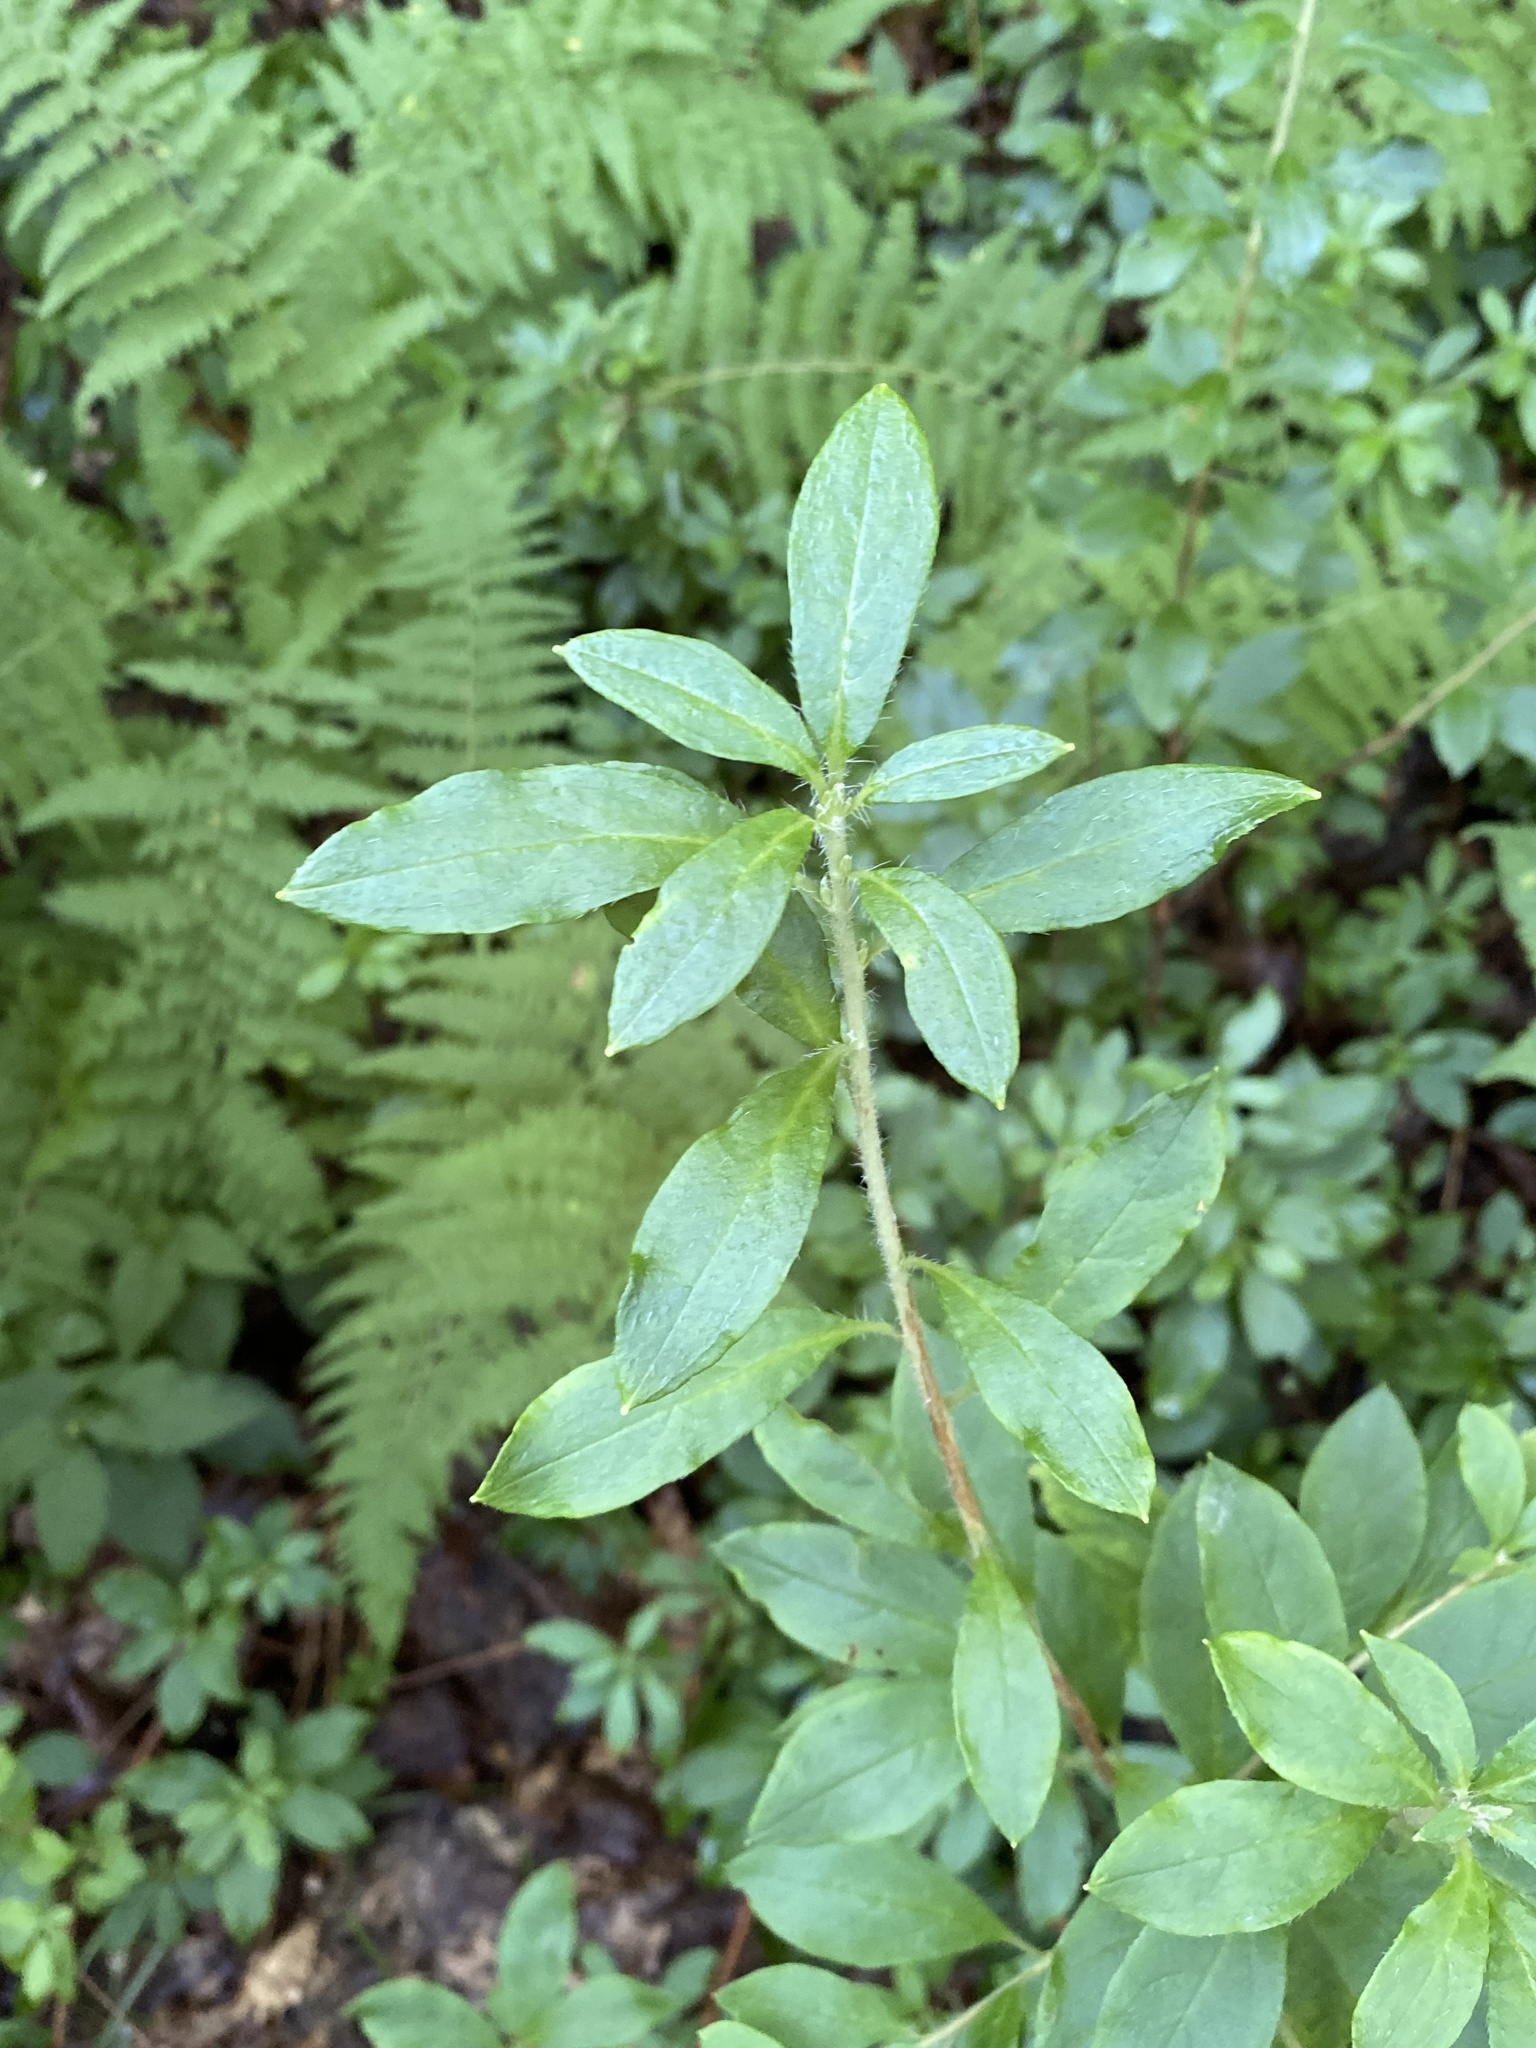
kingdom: Plantae
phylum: Tracheophyta
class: Magnoliopsida
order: Ericales
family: Ericaceae
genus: Rhododendron
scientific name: Rhododendron pilosum
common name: Hairy minniebush
